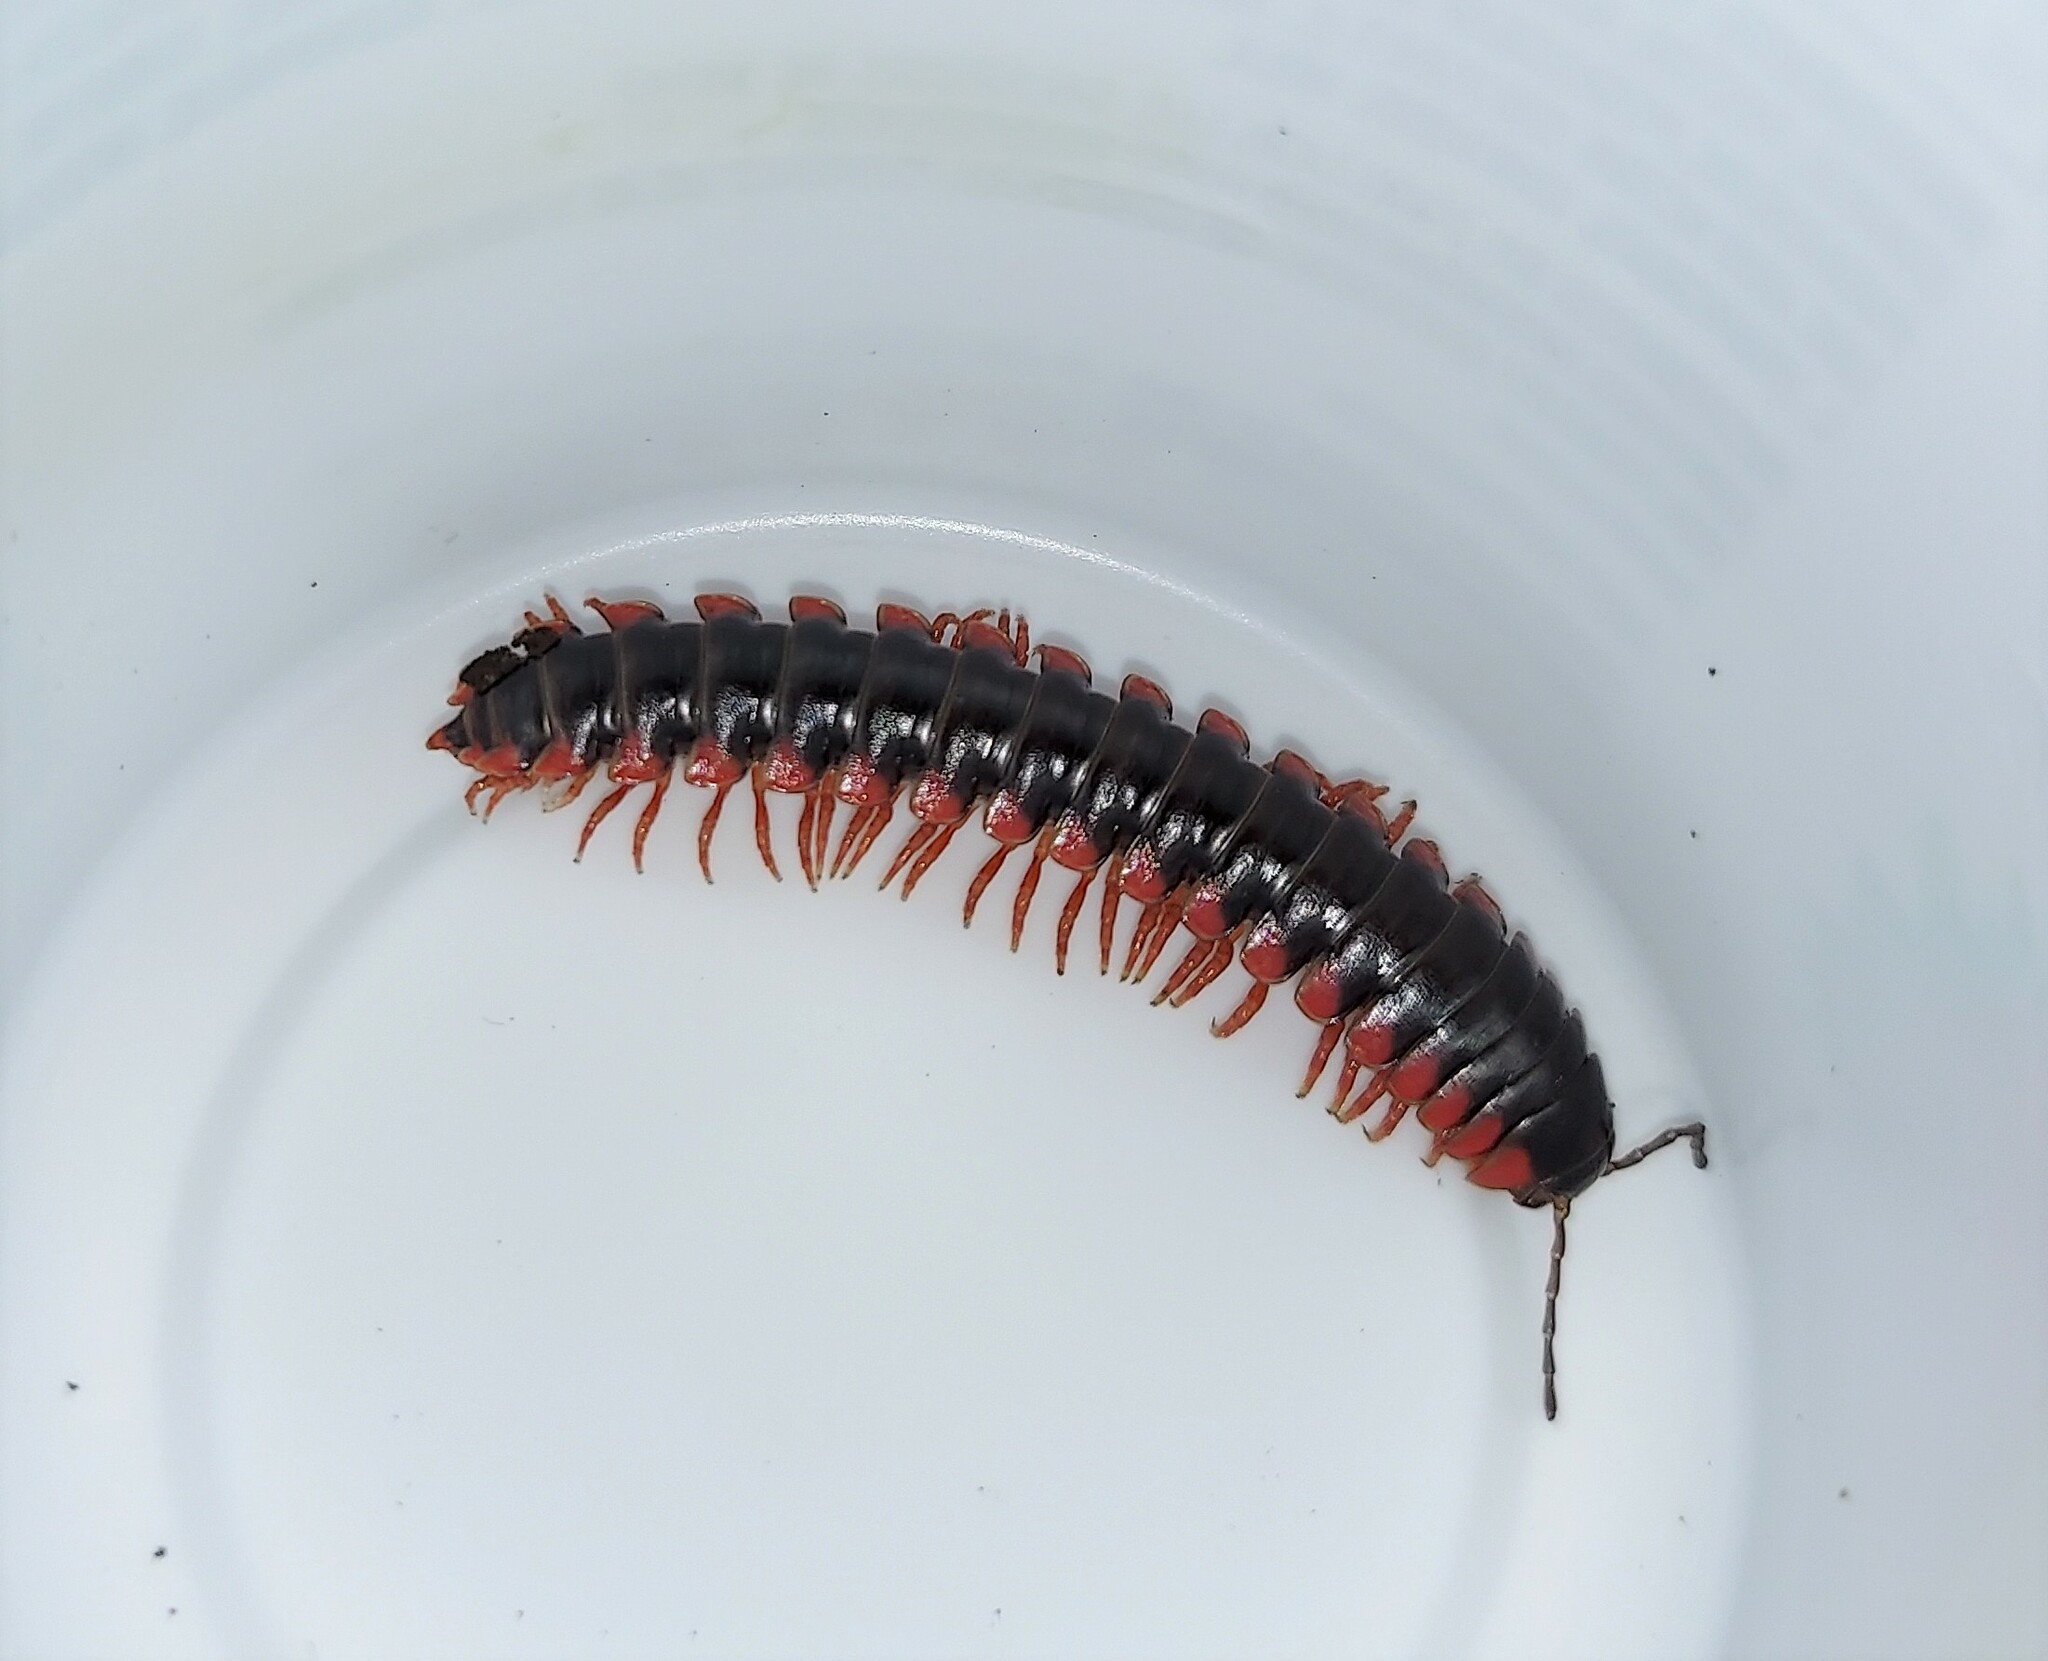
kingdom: Animalia
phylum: Arthropoda
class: Diplopoda
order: Polydesmida
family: Xystodesmidae
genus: Rudiloria
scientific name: Rudiloria kleinpeteri
